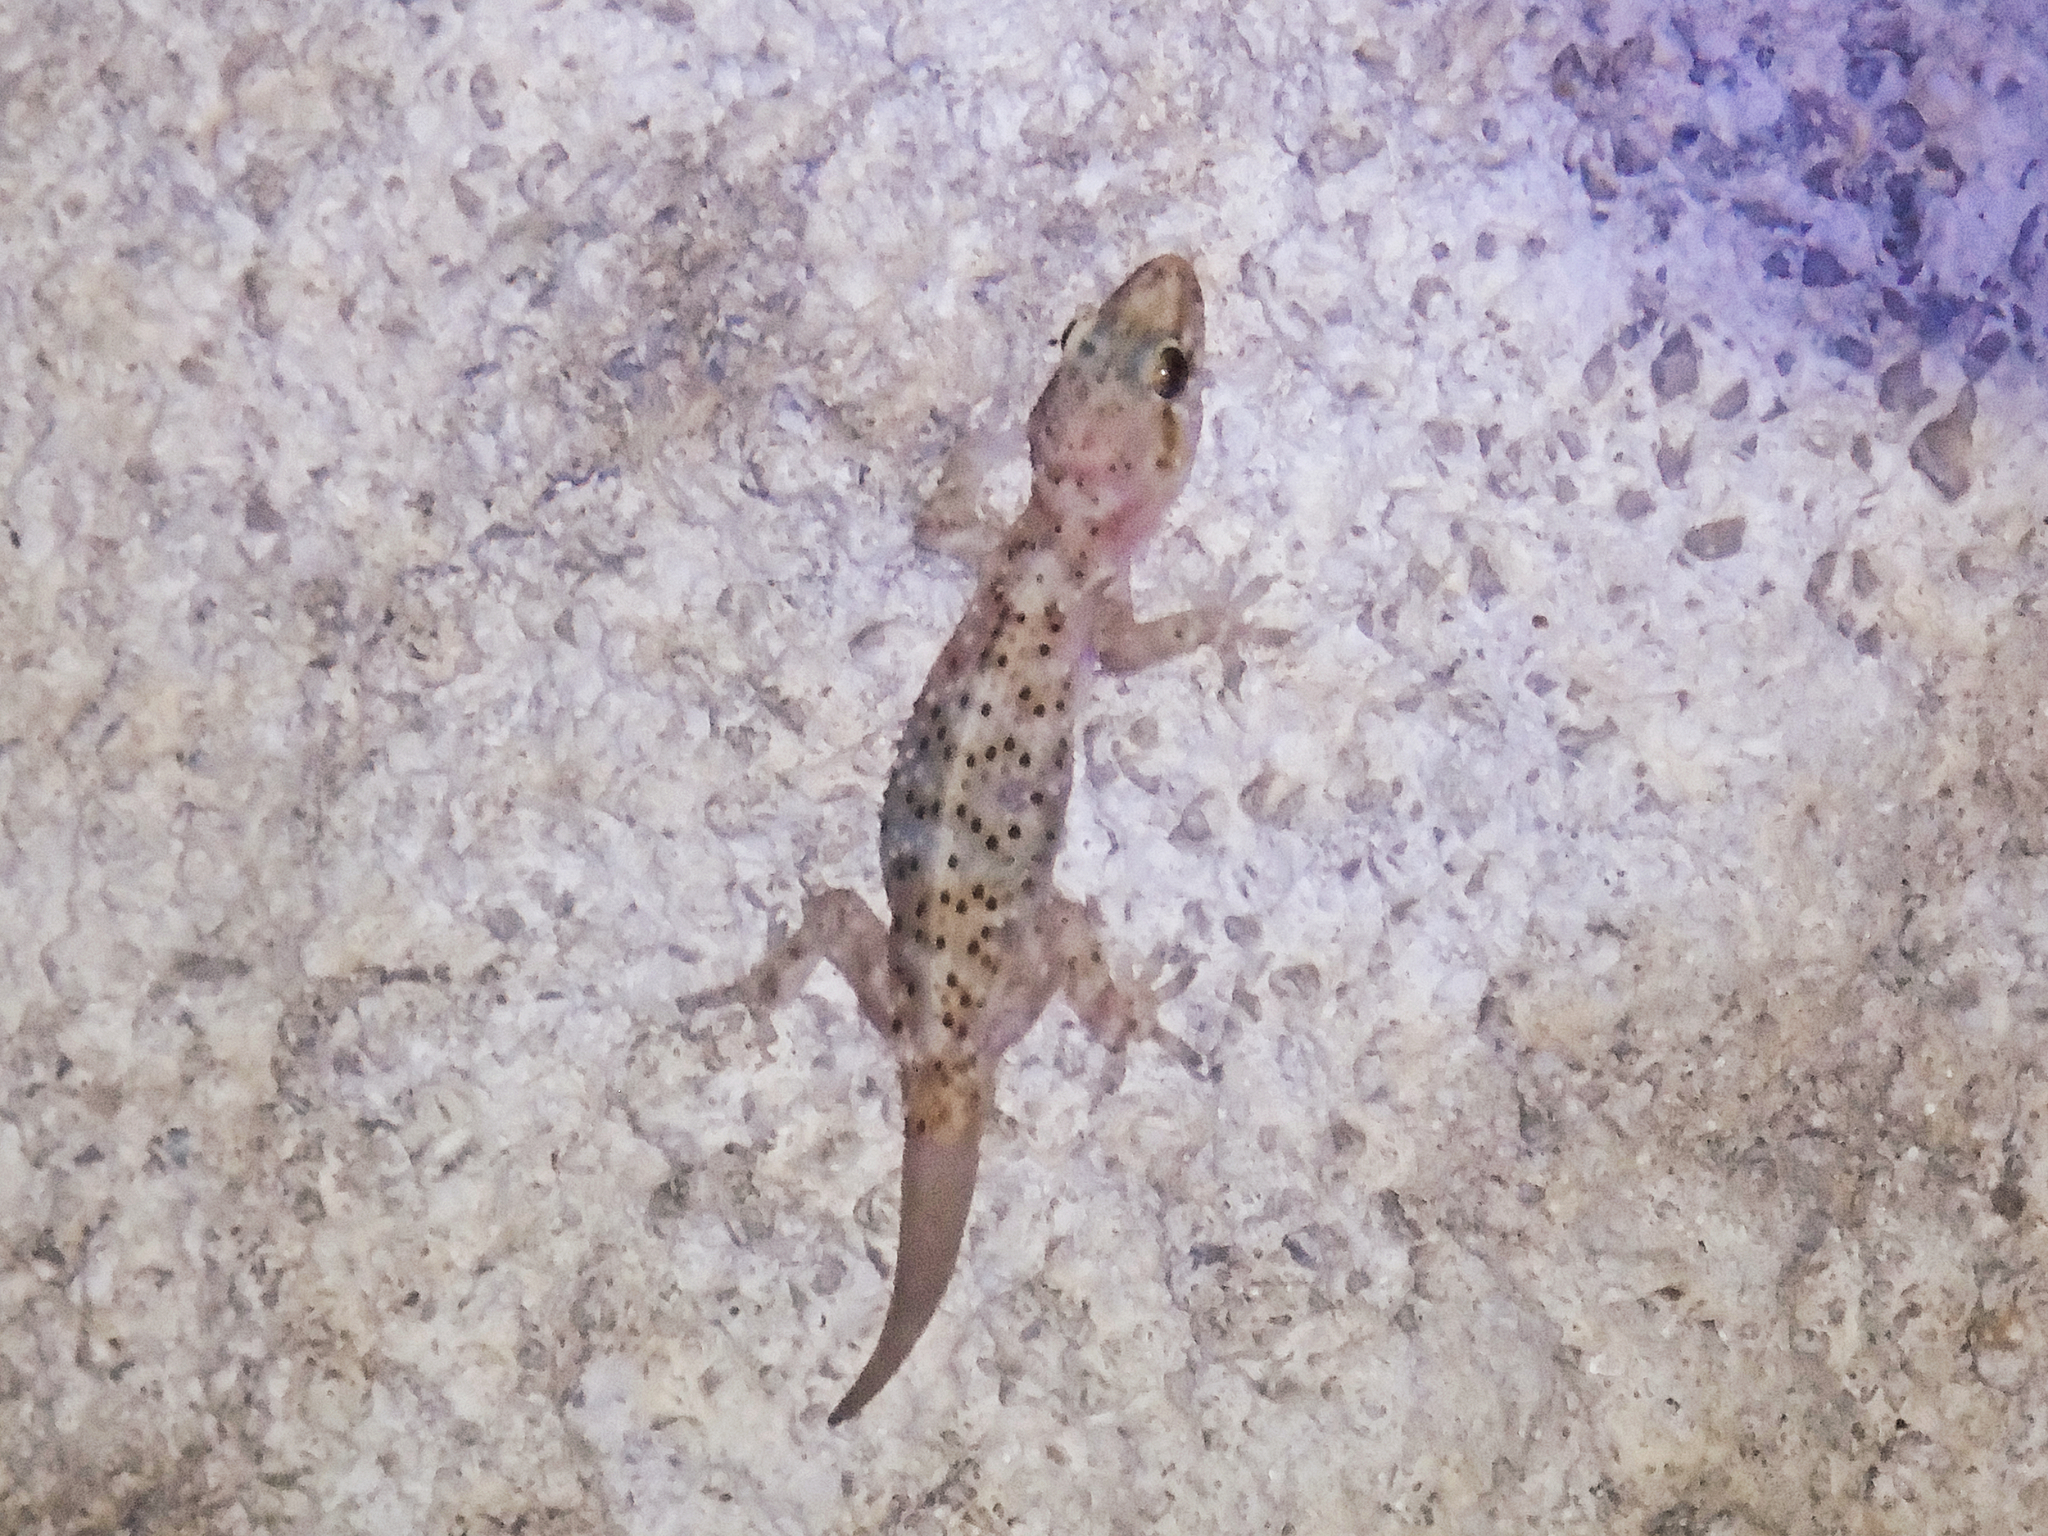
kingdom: Animalia
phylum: Chordata
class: Squamata
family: Gekkonidae
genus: Hemidactylus
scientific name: Hemidactylus turcicus
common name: Turkish gecko
